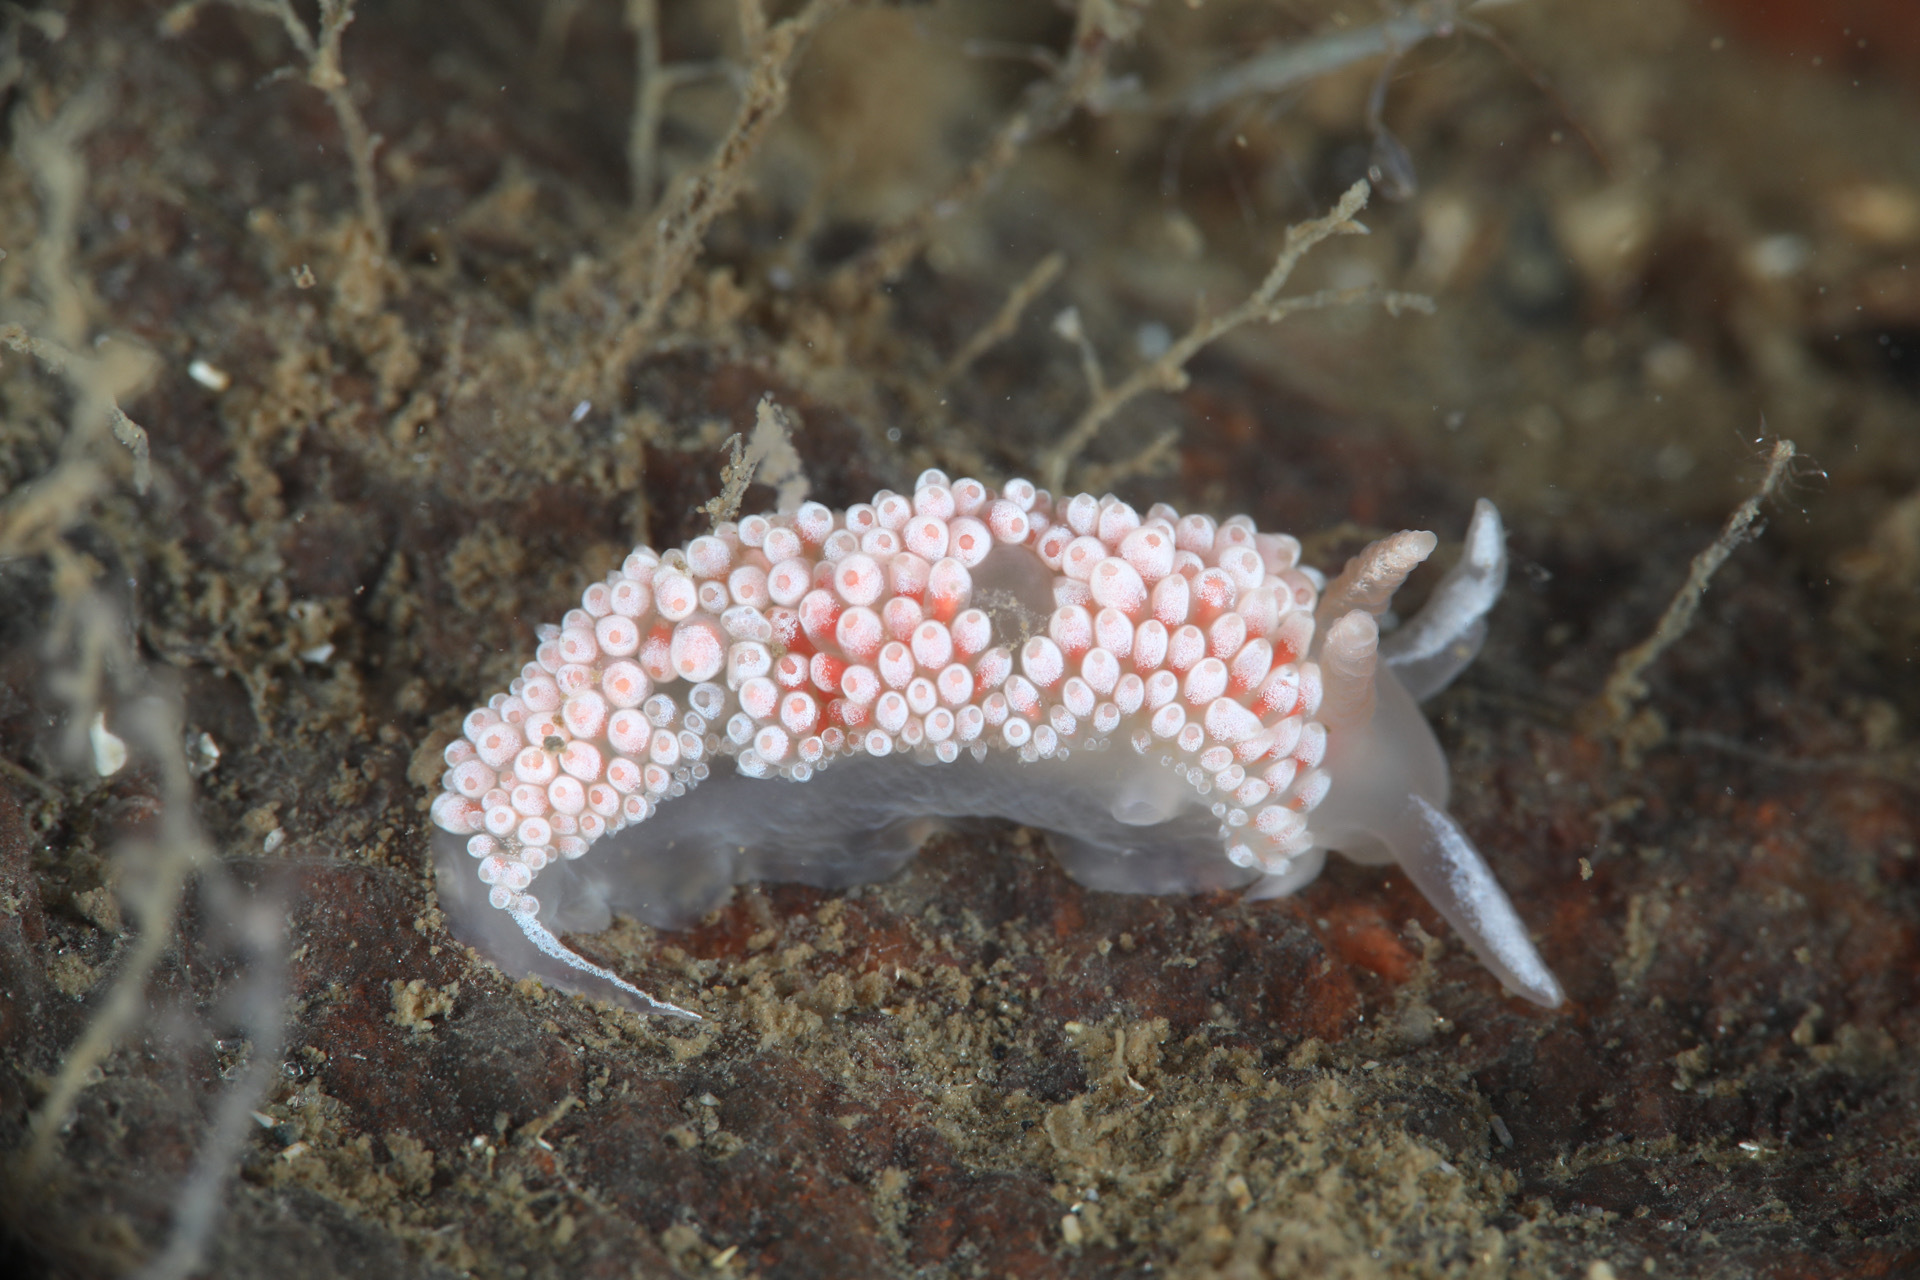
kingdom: Animalia
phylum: Mollusca
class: Gastropoda
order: Nudibranchia
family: Coryphellidae
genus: Coryphella
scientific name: Coryphella verrucosa
